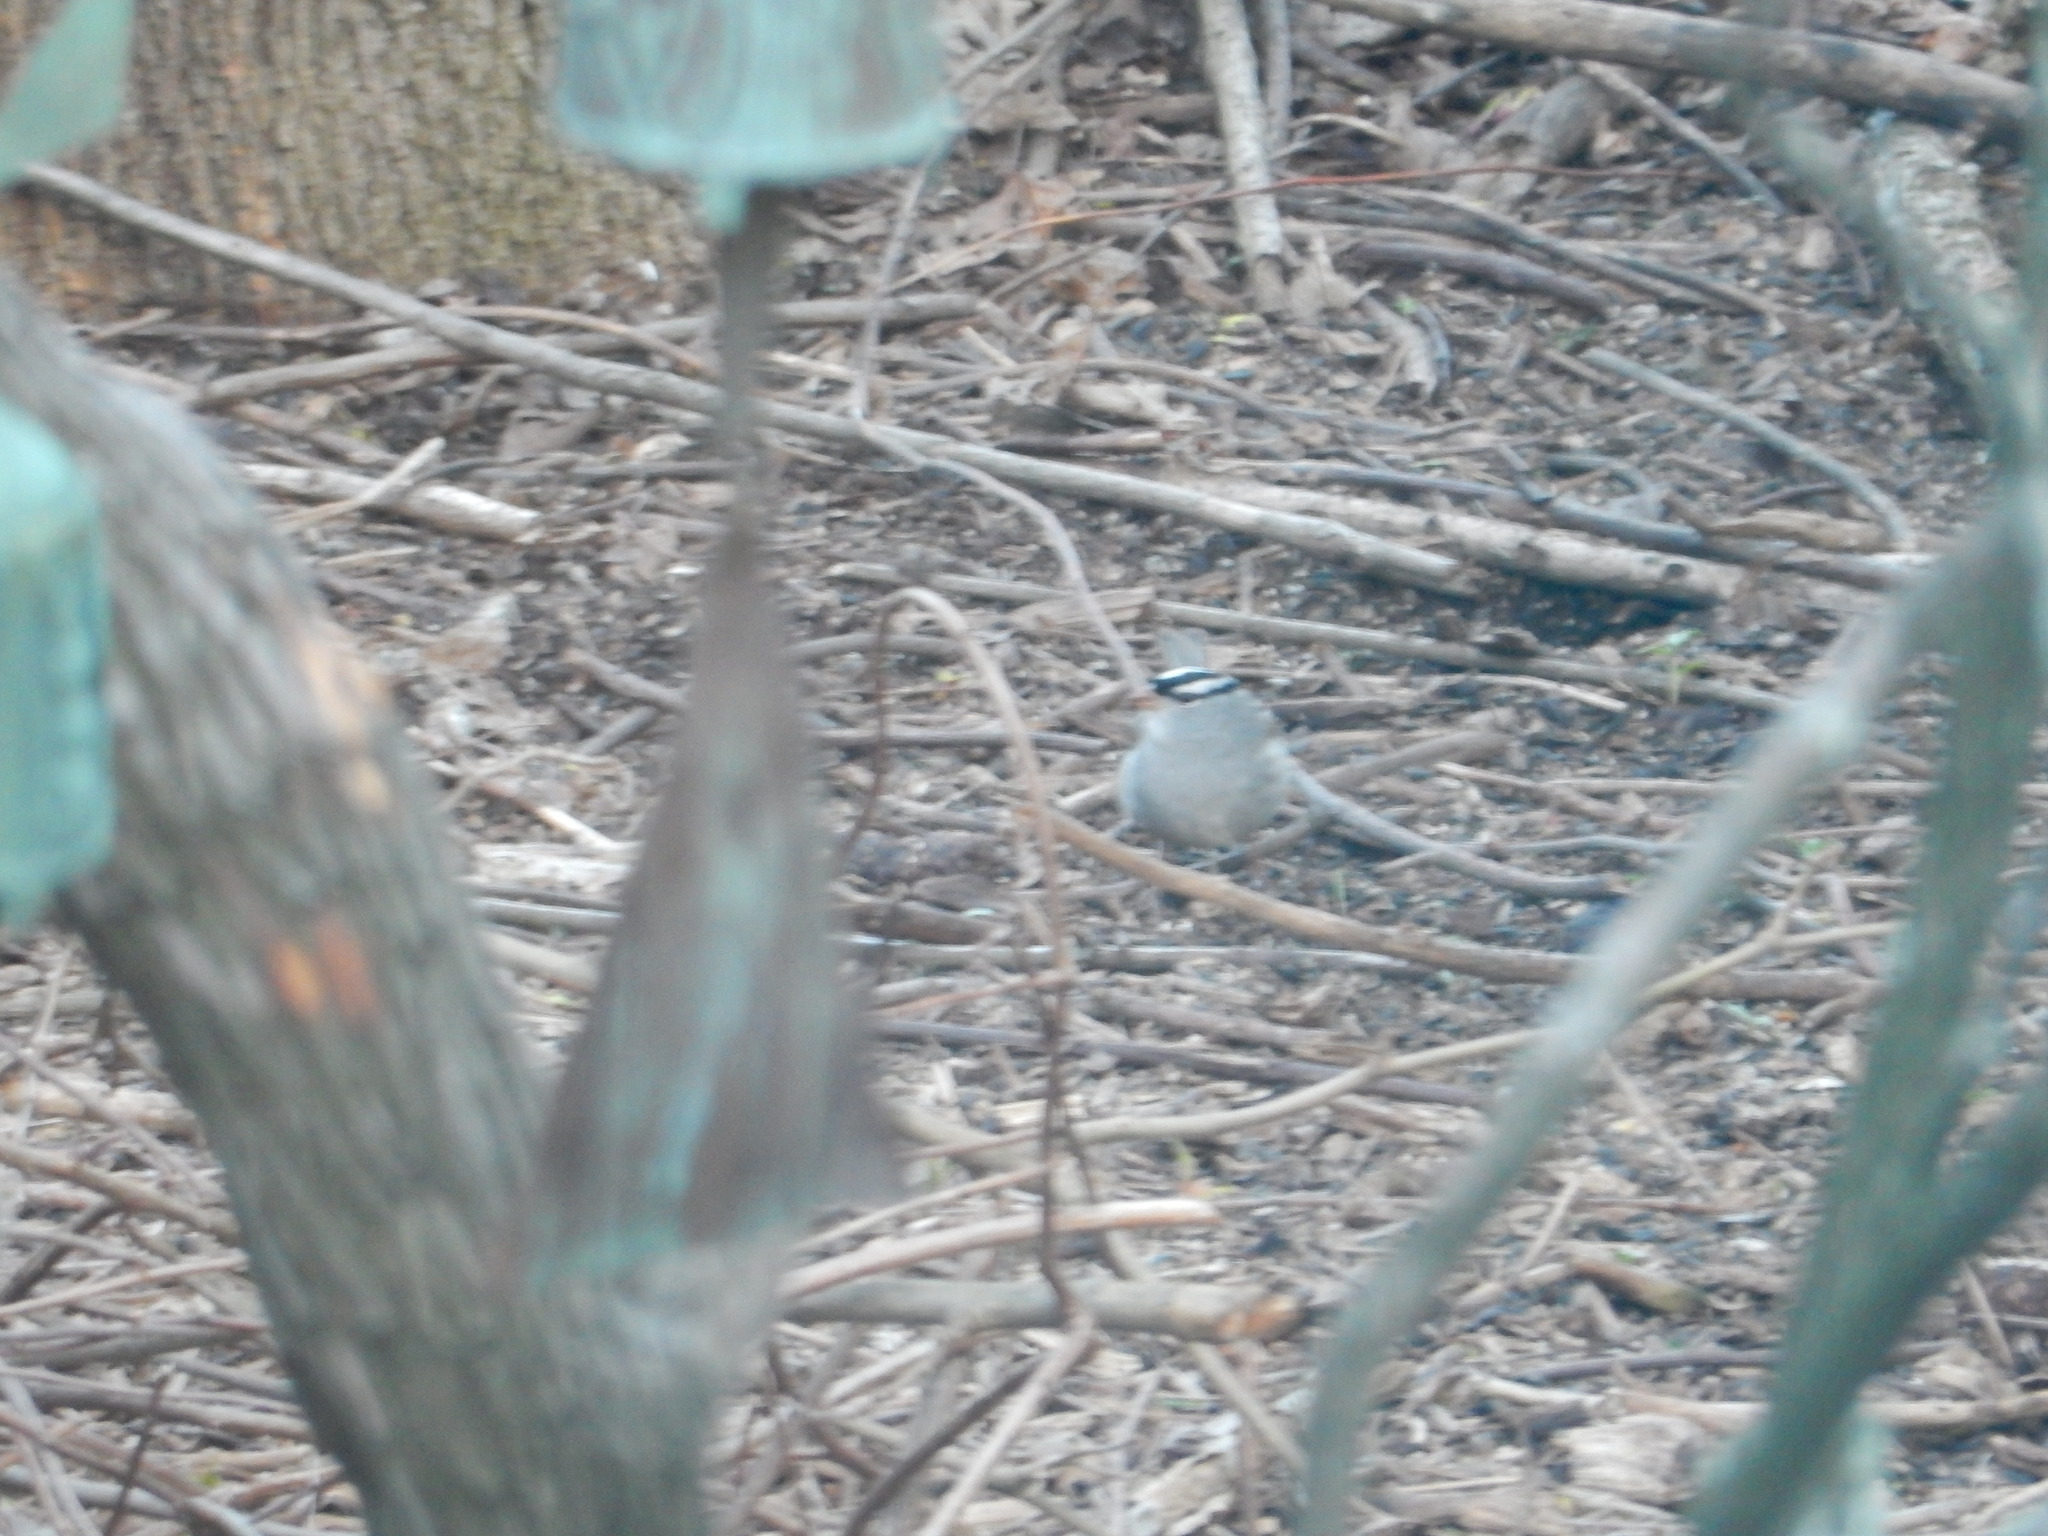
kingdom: Animalia
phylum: Chordata
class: Aves
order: Passeriformes
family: Passerellidae
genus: Zonotrichia
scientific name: Zonotrichia leucophrys
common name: White-crowned sparrow
